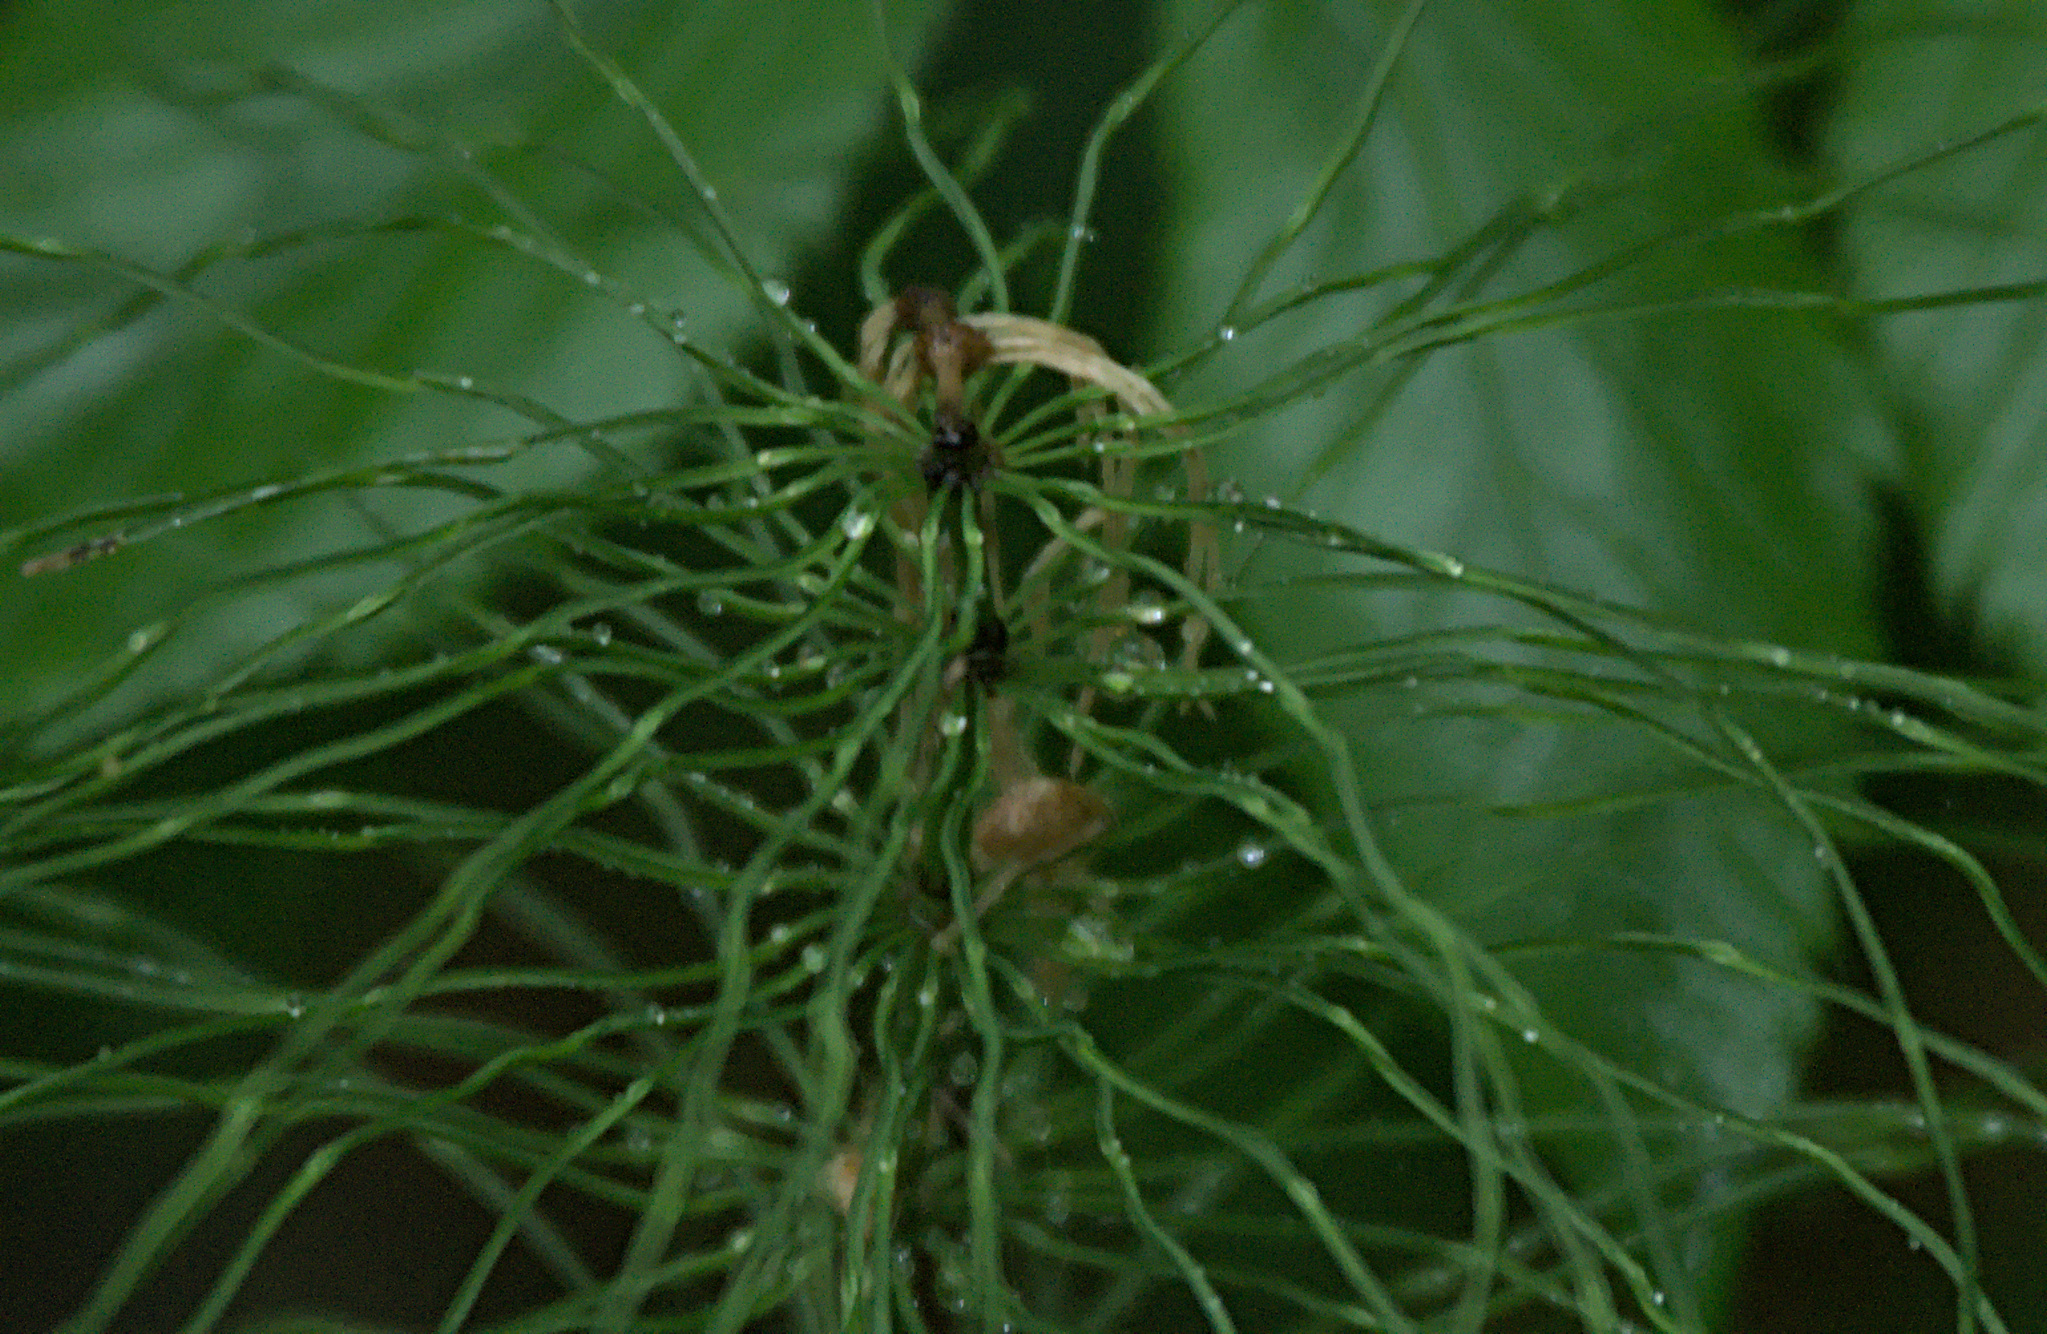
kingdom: Plantae
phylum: Tracheophyta
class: Polypodiopsida
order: Equisetales
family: Equisetaceae
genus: Equisetum
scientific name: Equisetum pratense
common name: Meadow horsetail
